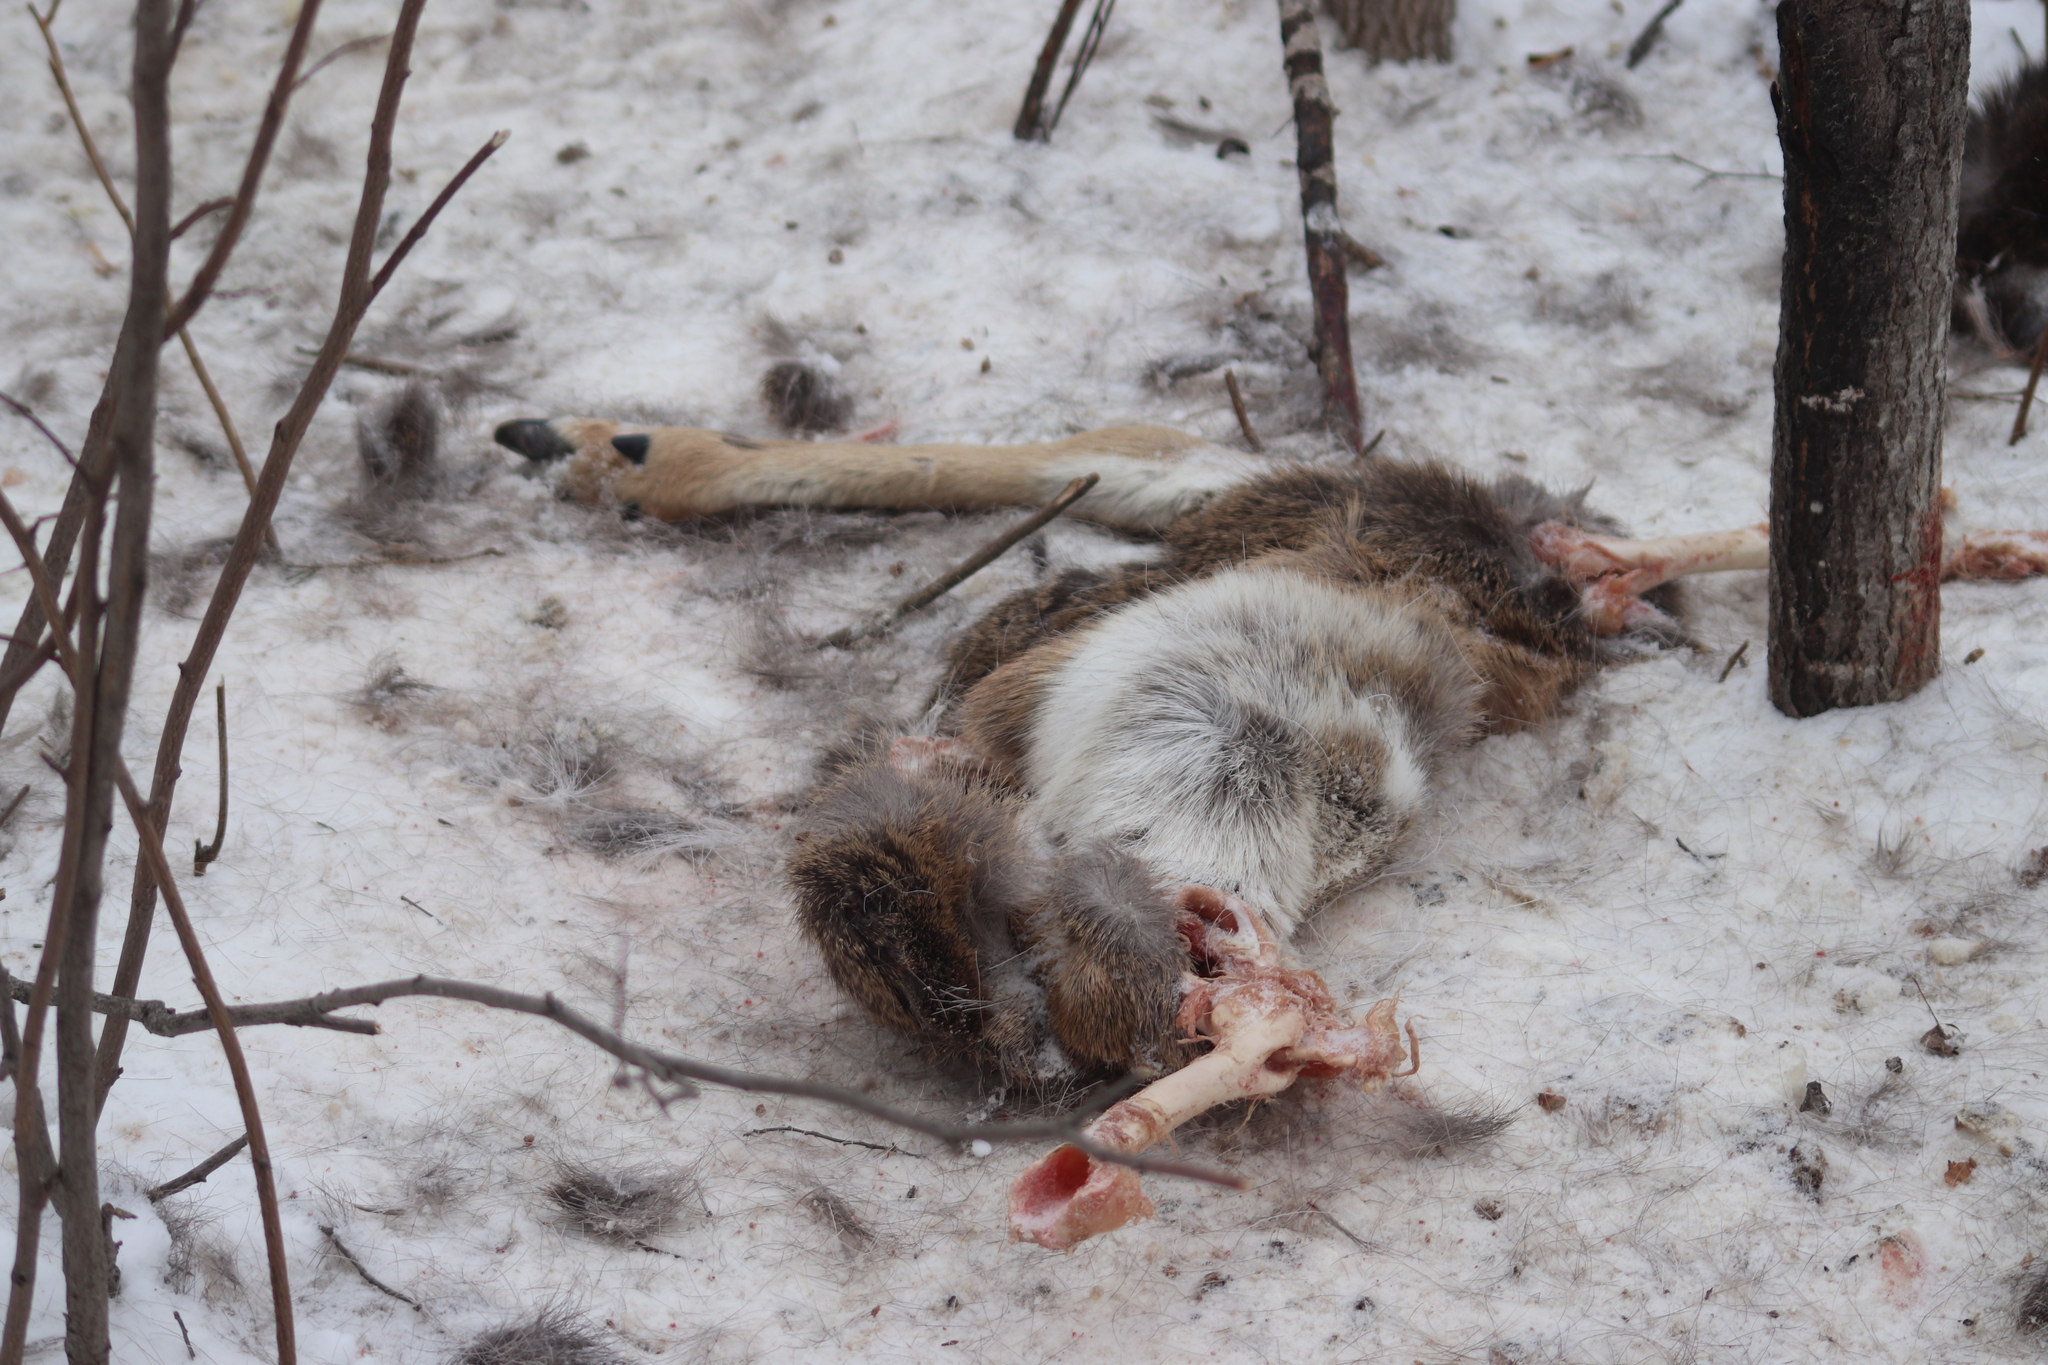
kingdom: Animalia
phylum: Chordata
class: Mammalia
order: Artiodactyla
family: Cervidae
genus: Odocoileus
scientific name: Odocoileus virginianus
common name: White-tailed deer
